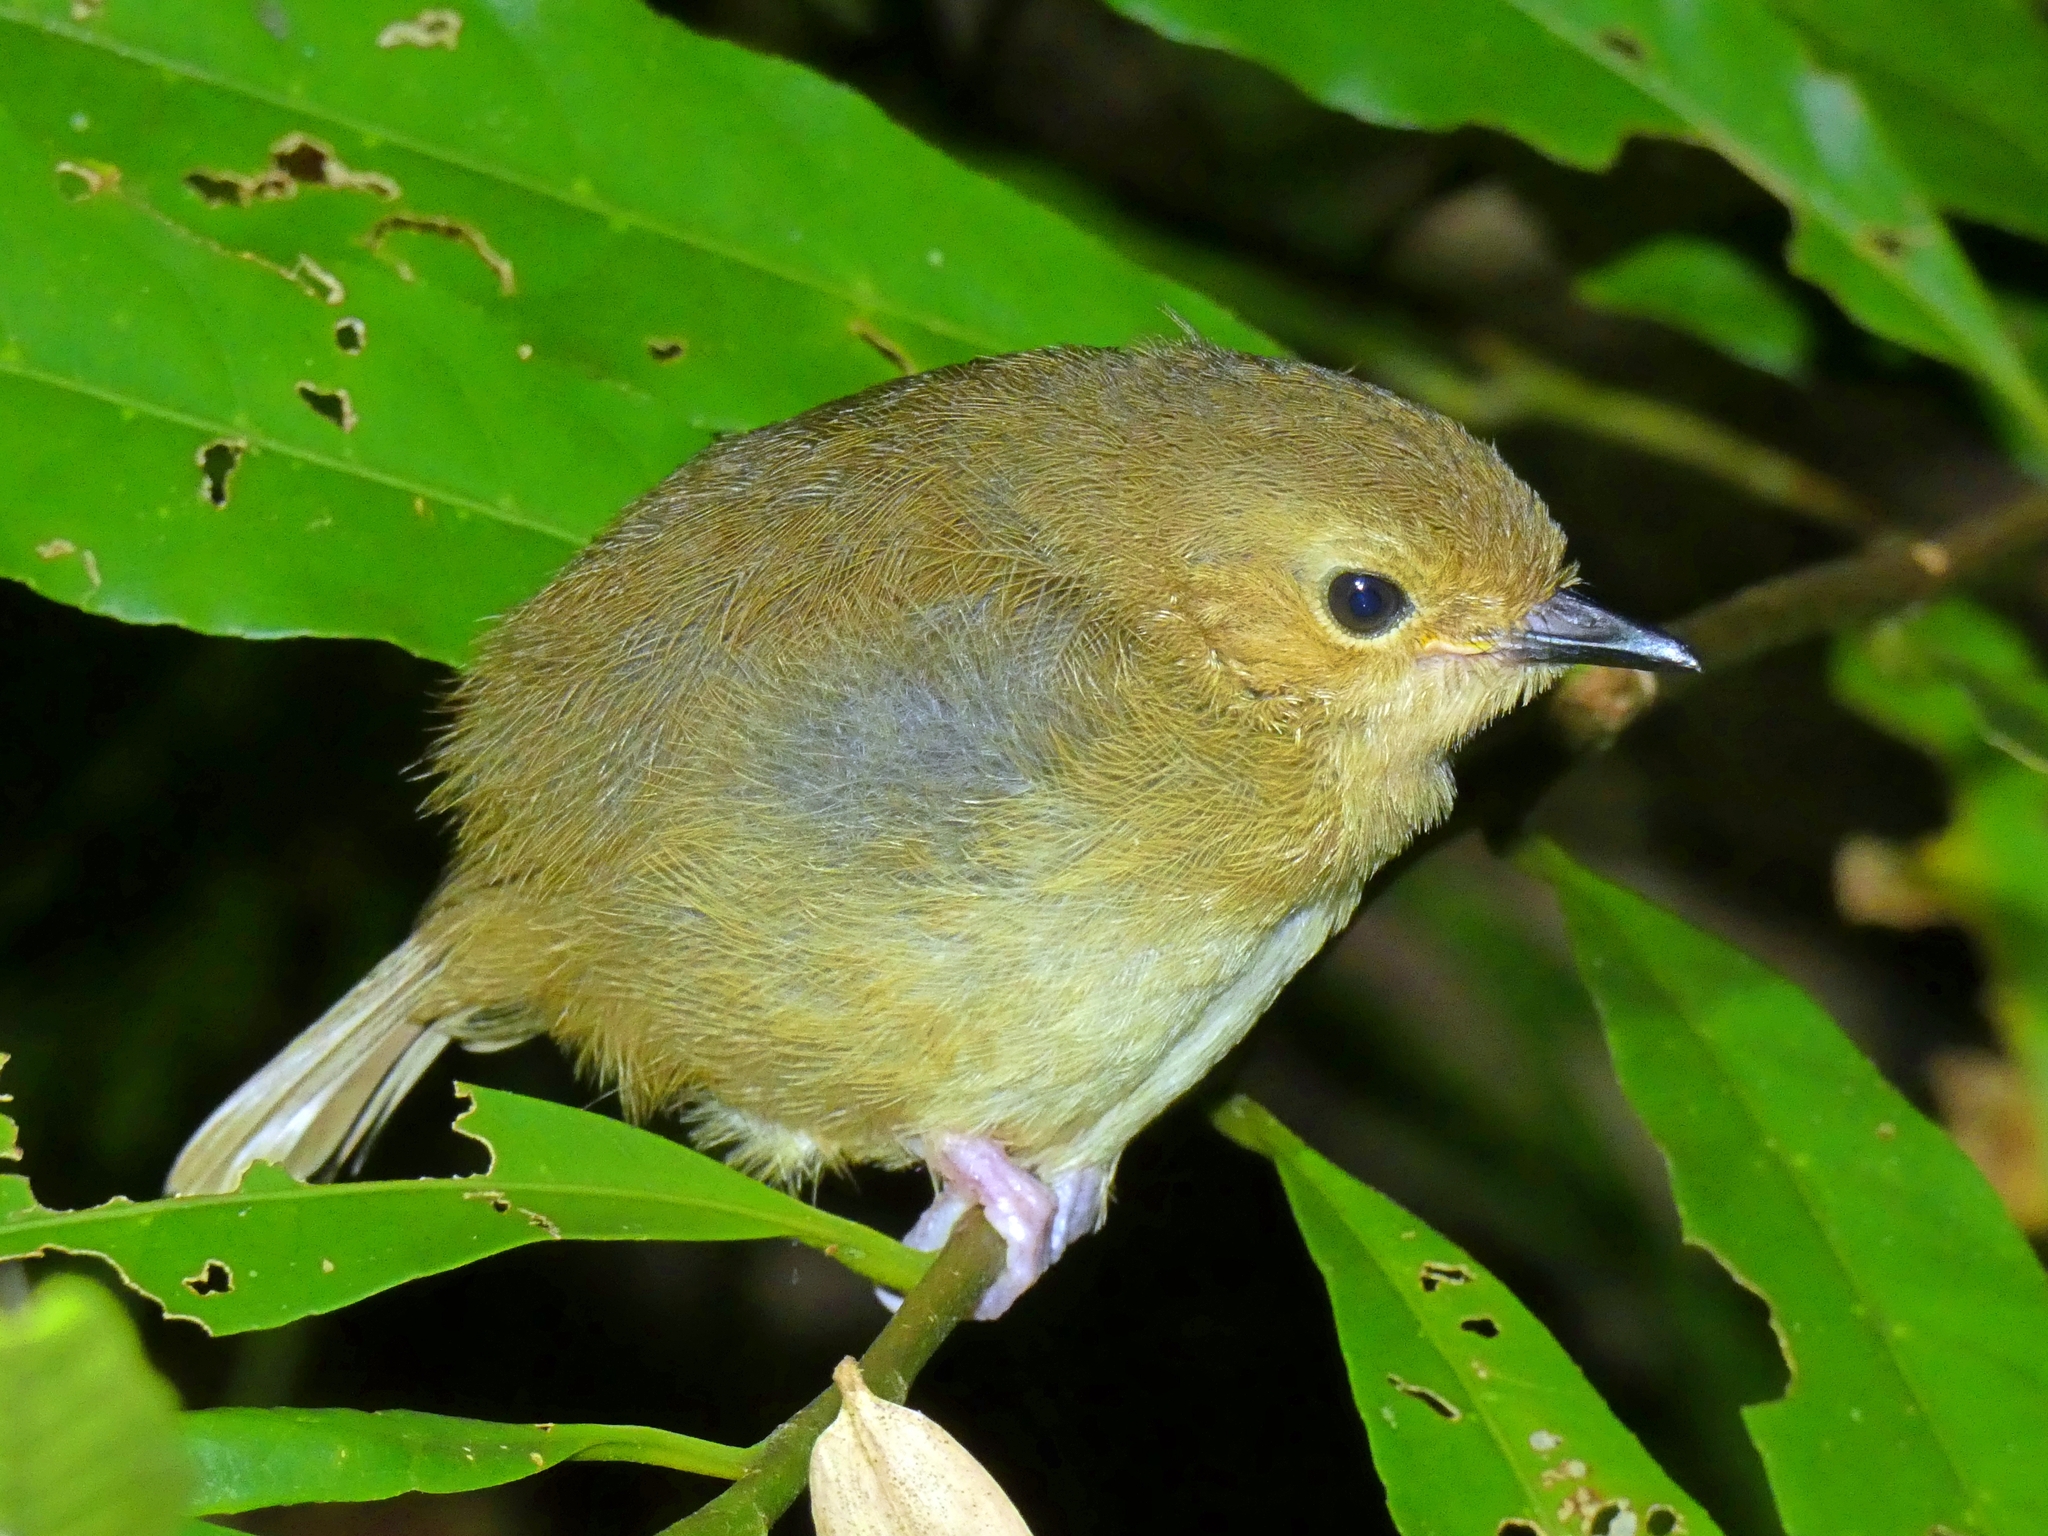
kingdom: Animalia
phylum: Chordata
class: Aves
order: Passeriformes
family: Acanthizidae
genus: Sericornis
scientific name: Sericornis magnirostra
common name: Large-billed scrubwren
